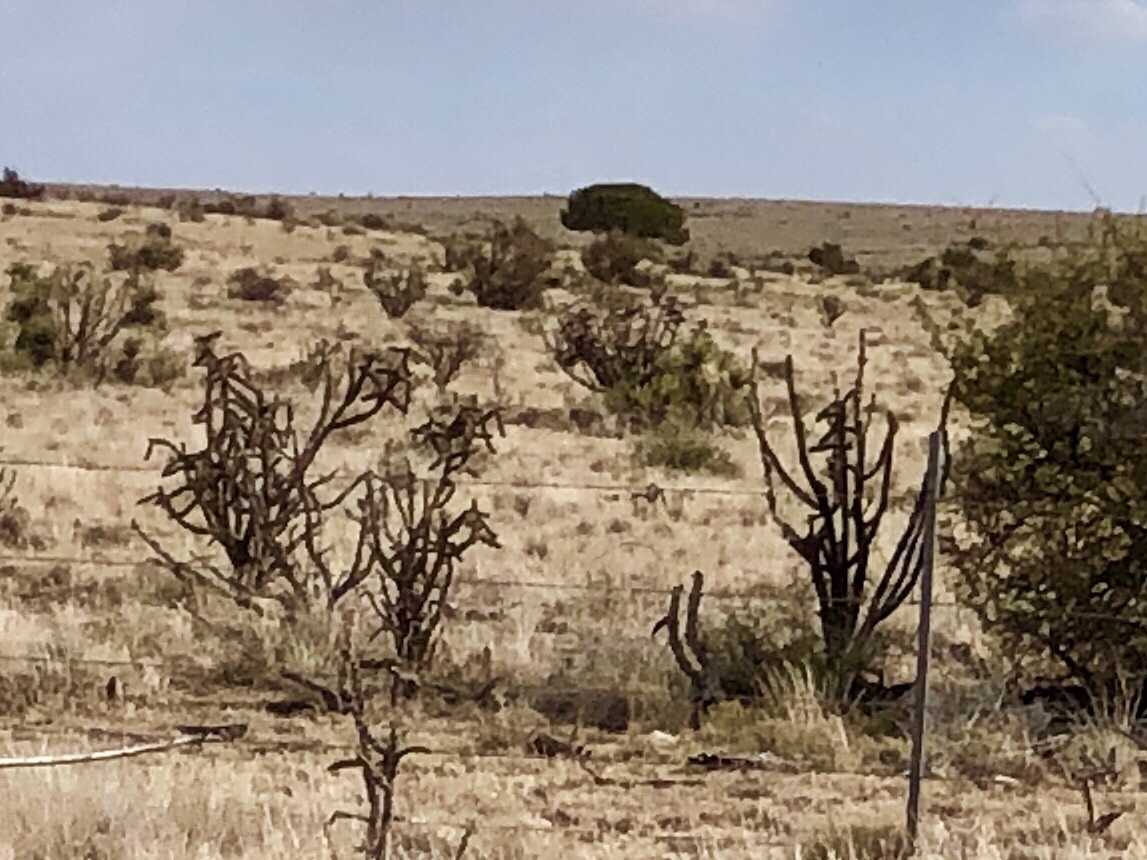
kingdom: Plantae
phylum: Tracheophyta
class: Magnoliopsida
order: Caryophyllales
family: Cactaceae
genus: Cylindropuntia
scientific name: Cylindropuntia imbricata
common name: Candelabrum cactus
